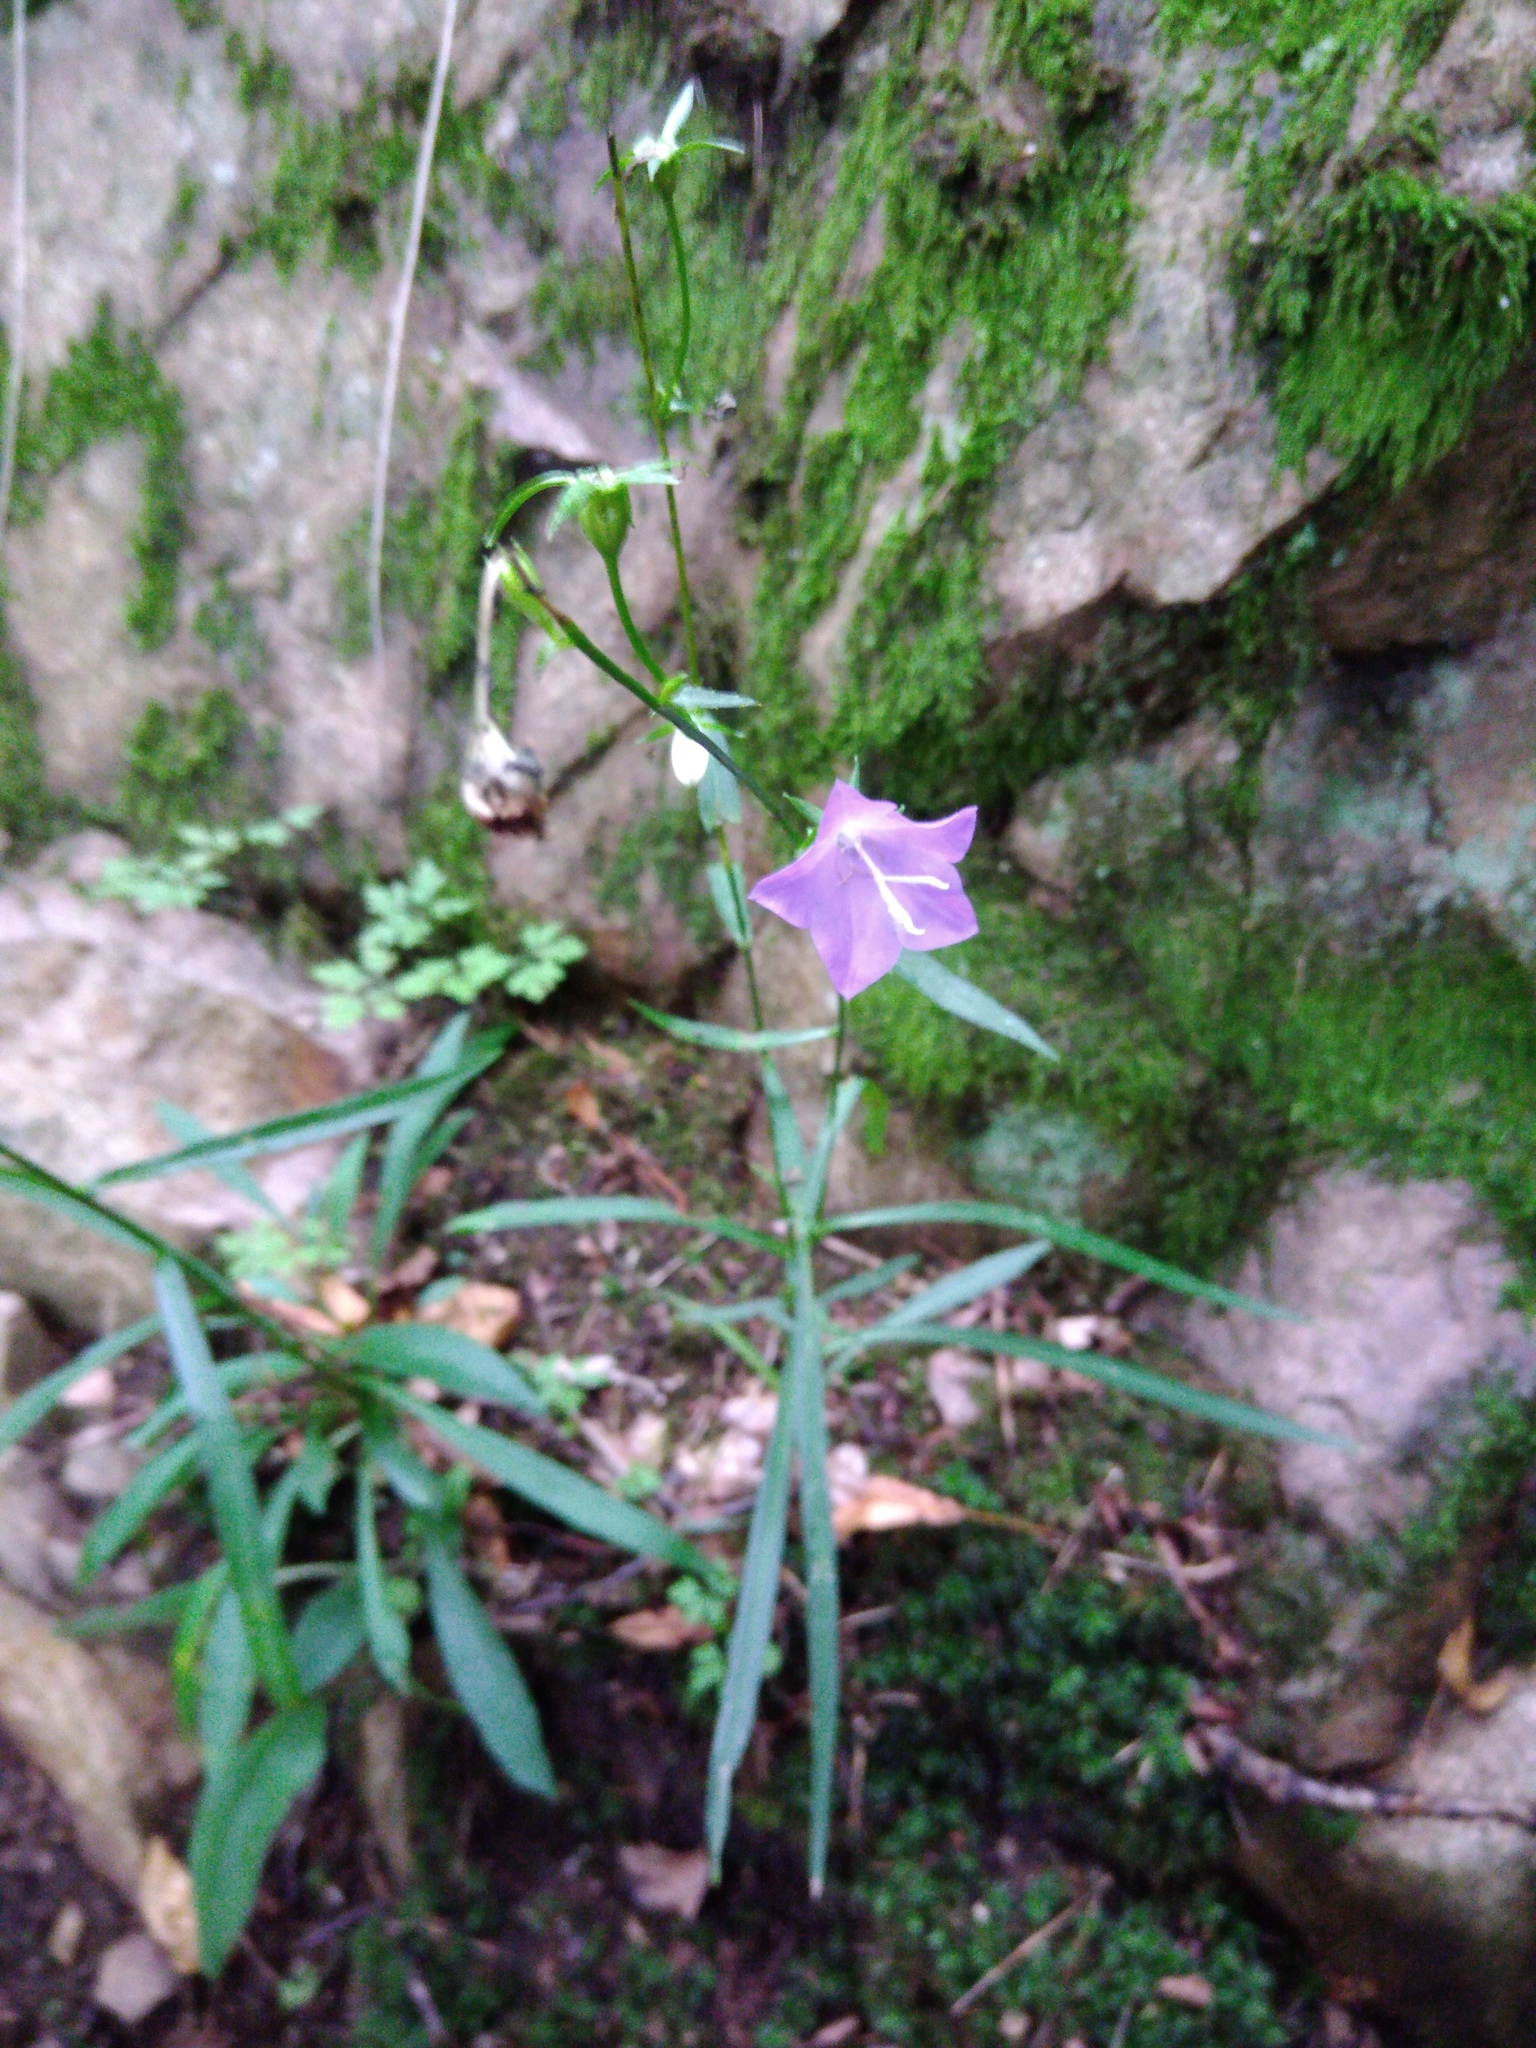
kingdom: Plantae
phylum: Tracheophyta
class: Magnoliopsida
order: Asterales
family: Campanulaceae
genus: Campanula
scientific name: Campanula persicifolia
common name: Peach-leaved bellflower
